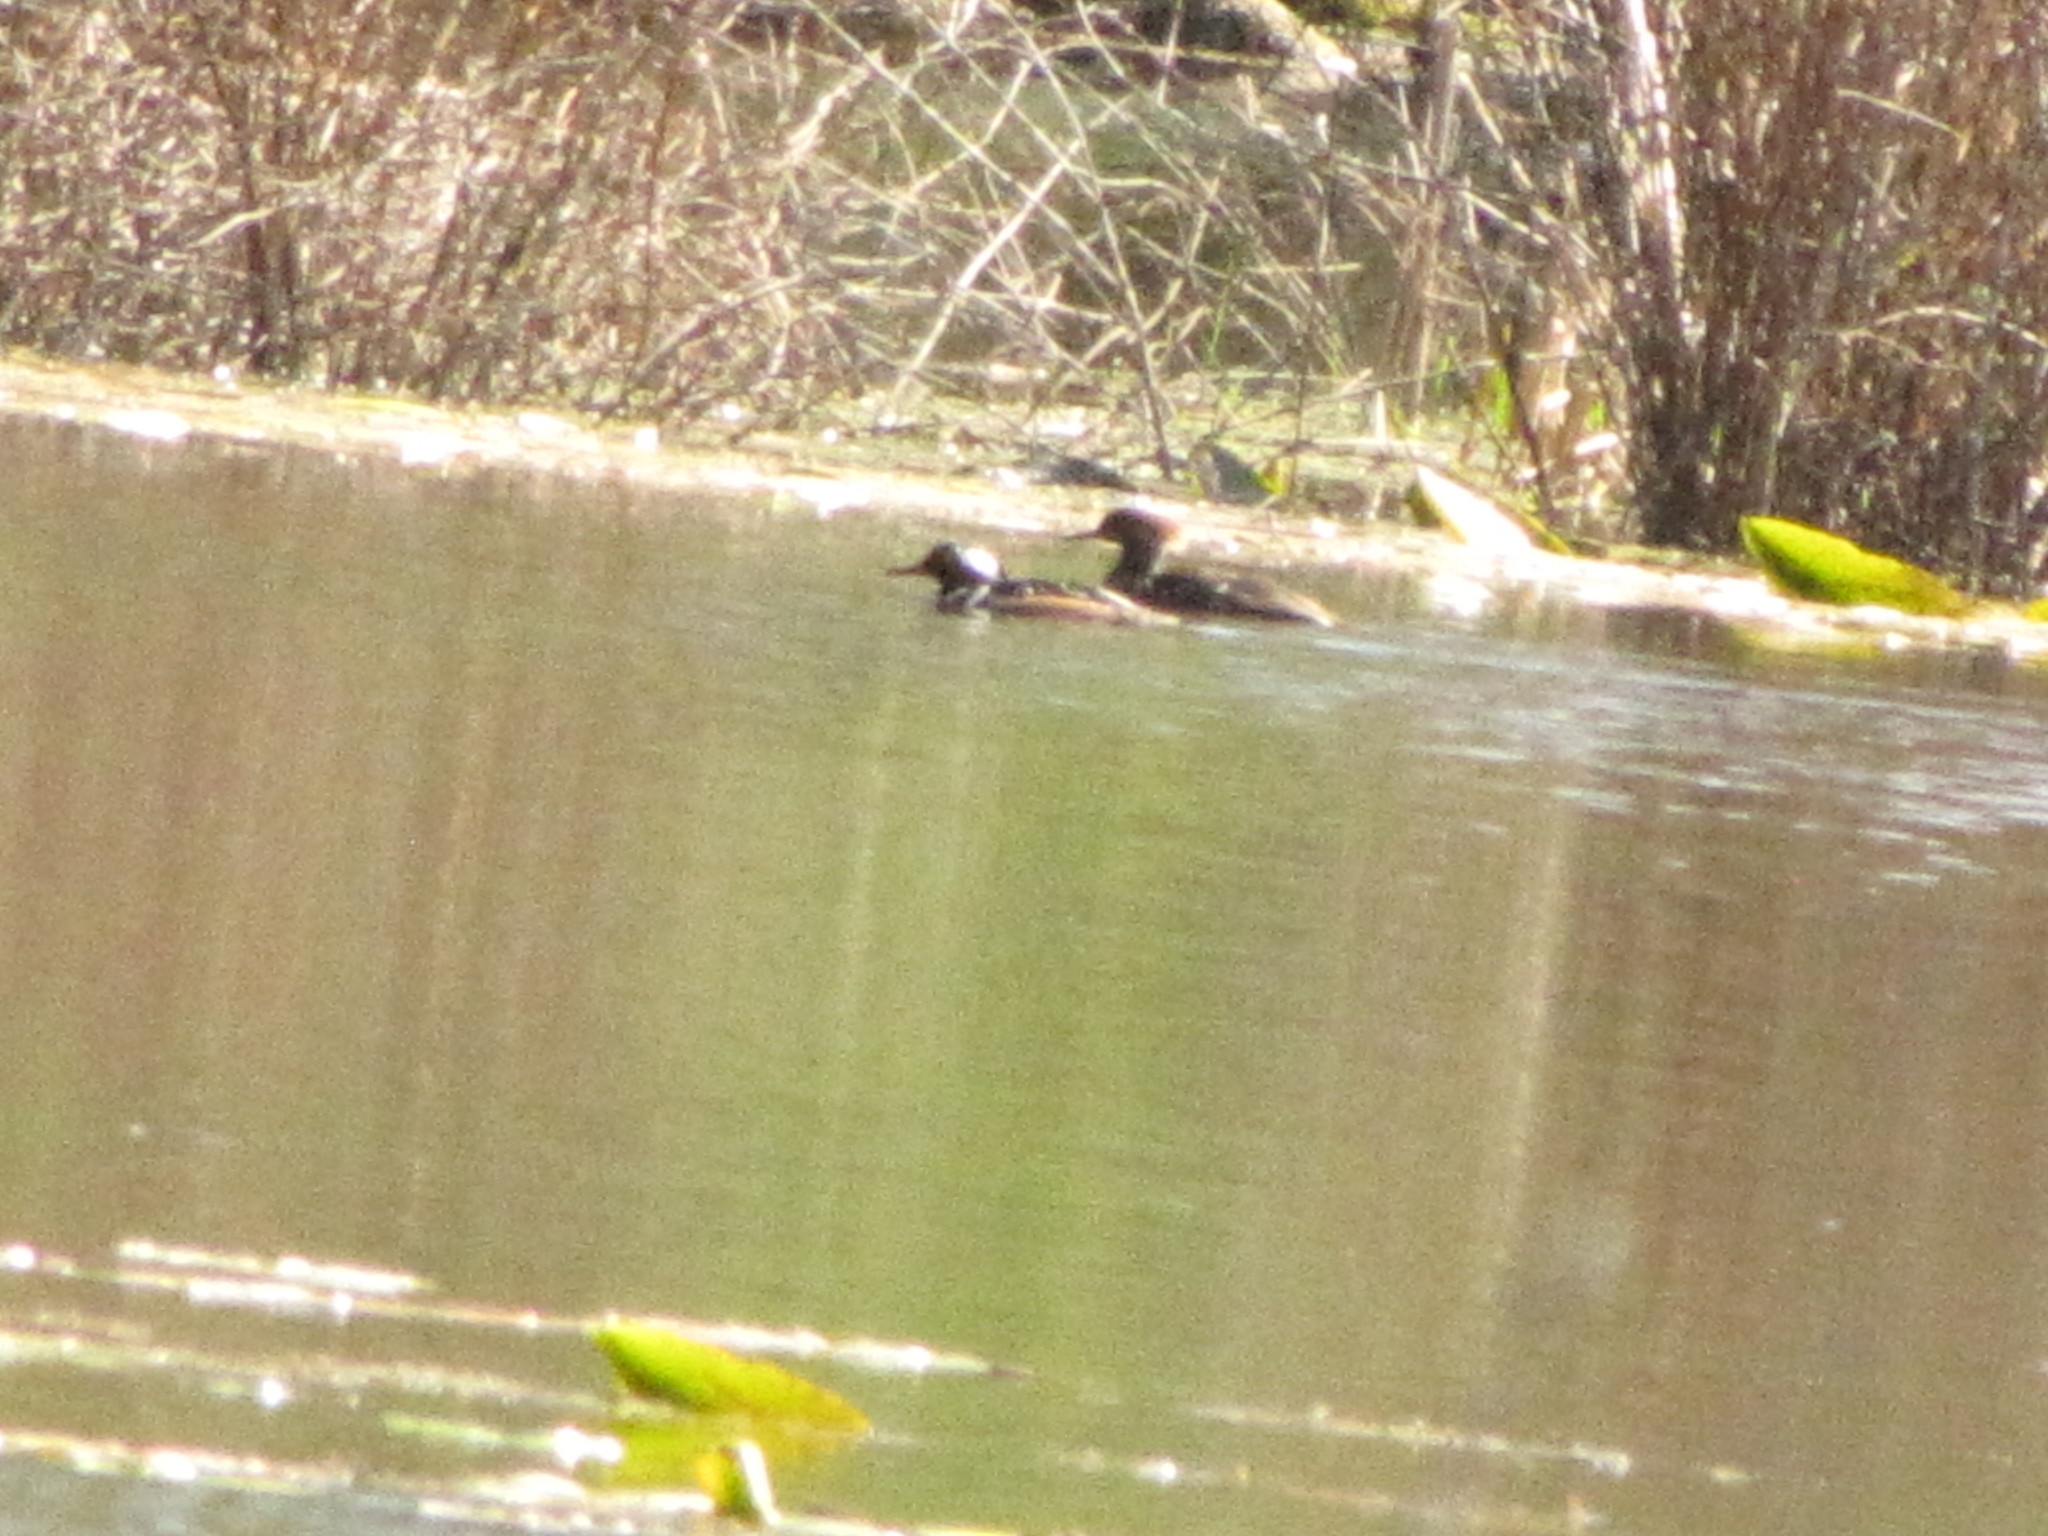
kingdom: Animalia
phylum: Chordata
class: Aves
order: Anseriformes
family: Anatidae
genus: Lophodytes
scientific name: Lophodytes cucullatus
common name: Hooded merganser
